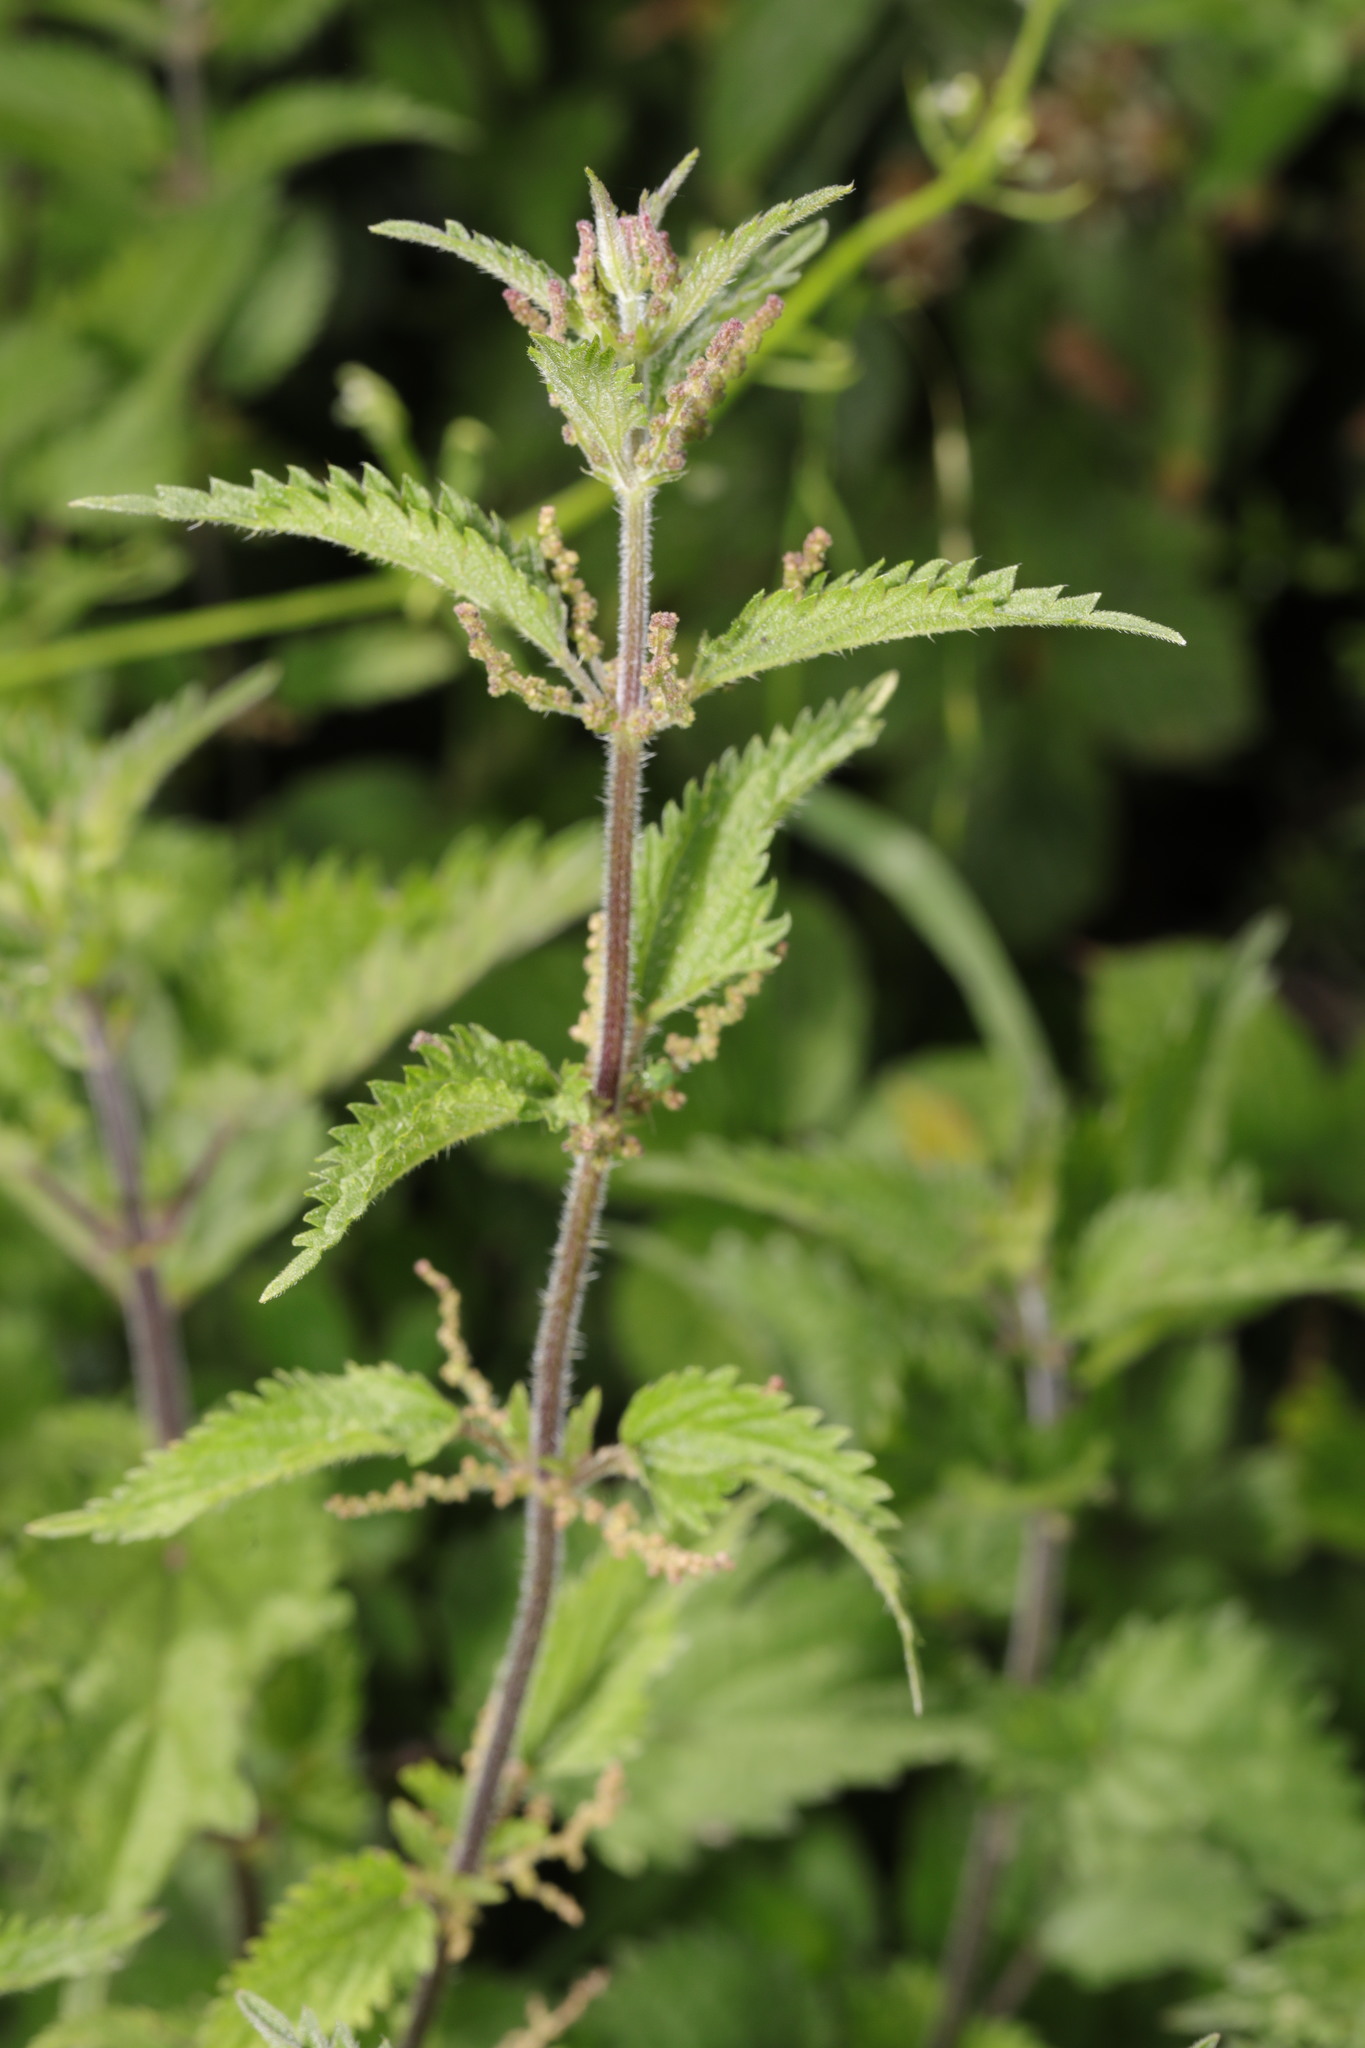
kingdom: Plantae
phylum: Tracheophyta
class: Magnoliopsida
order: Rosales
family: Urticaceae
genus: Urtica
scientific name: Urtica dioica
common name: Common nettle
